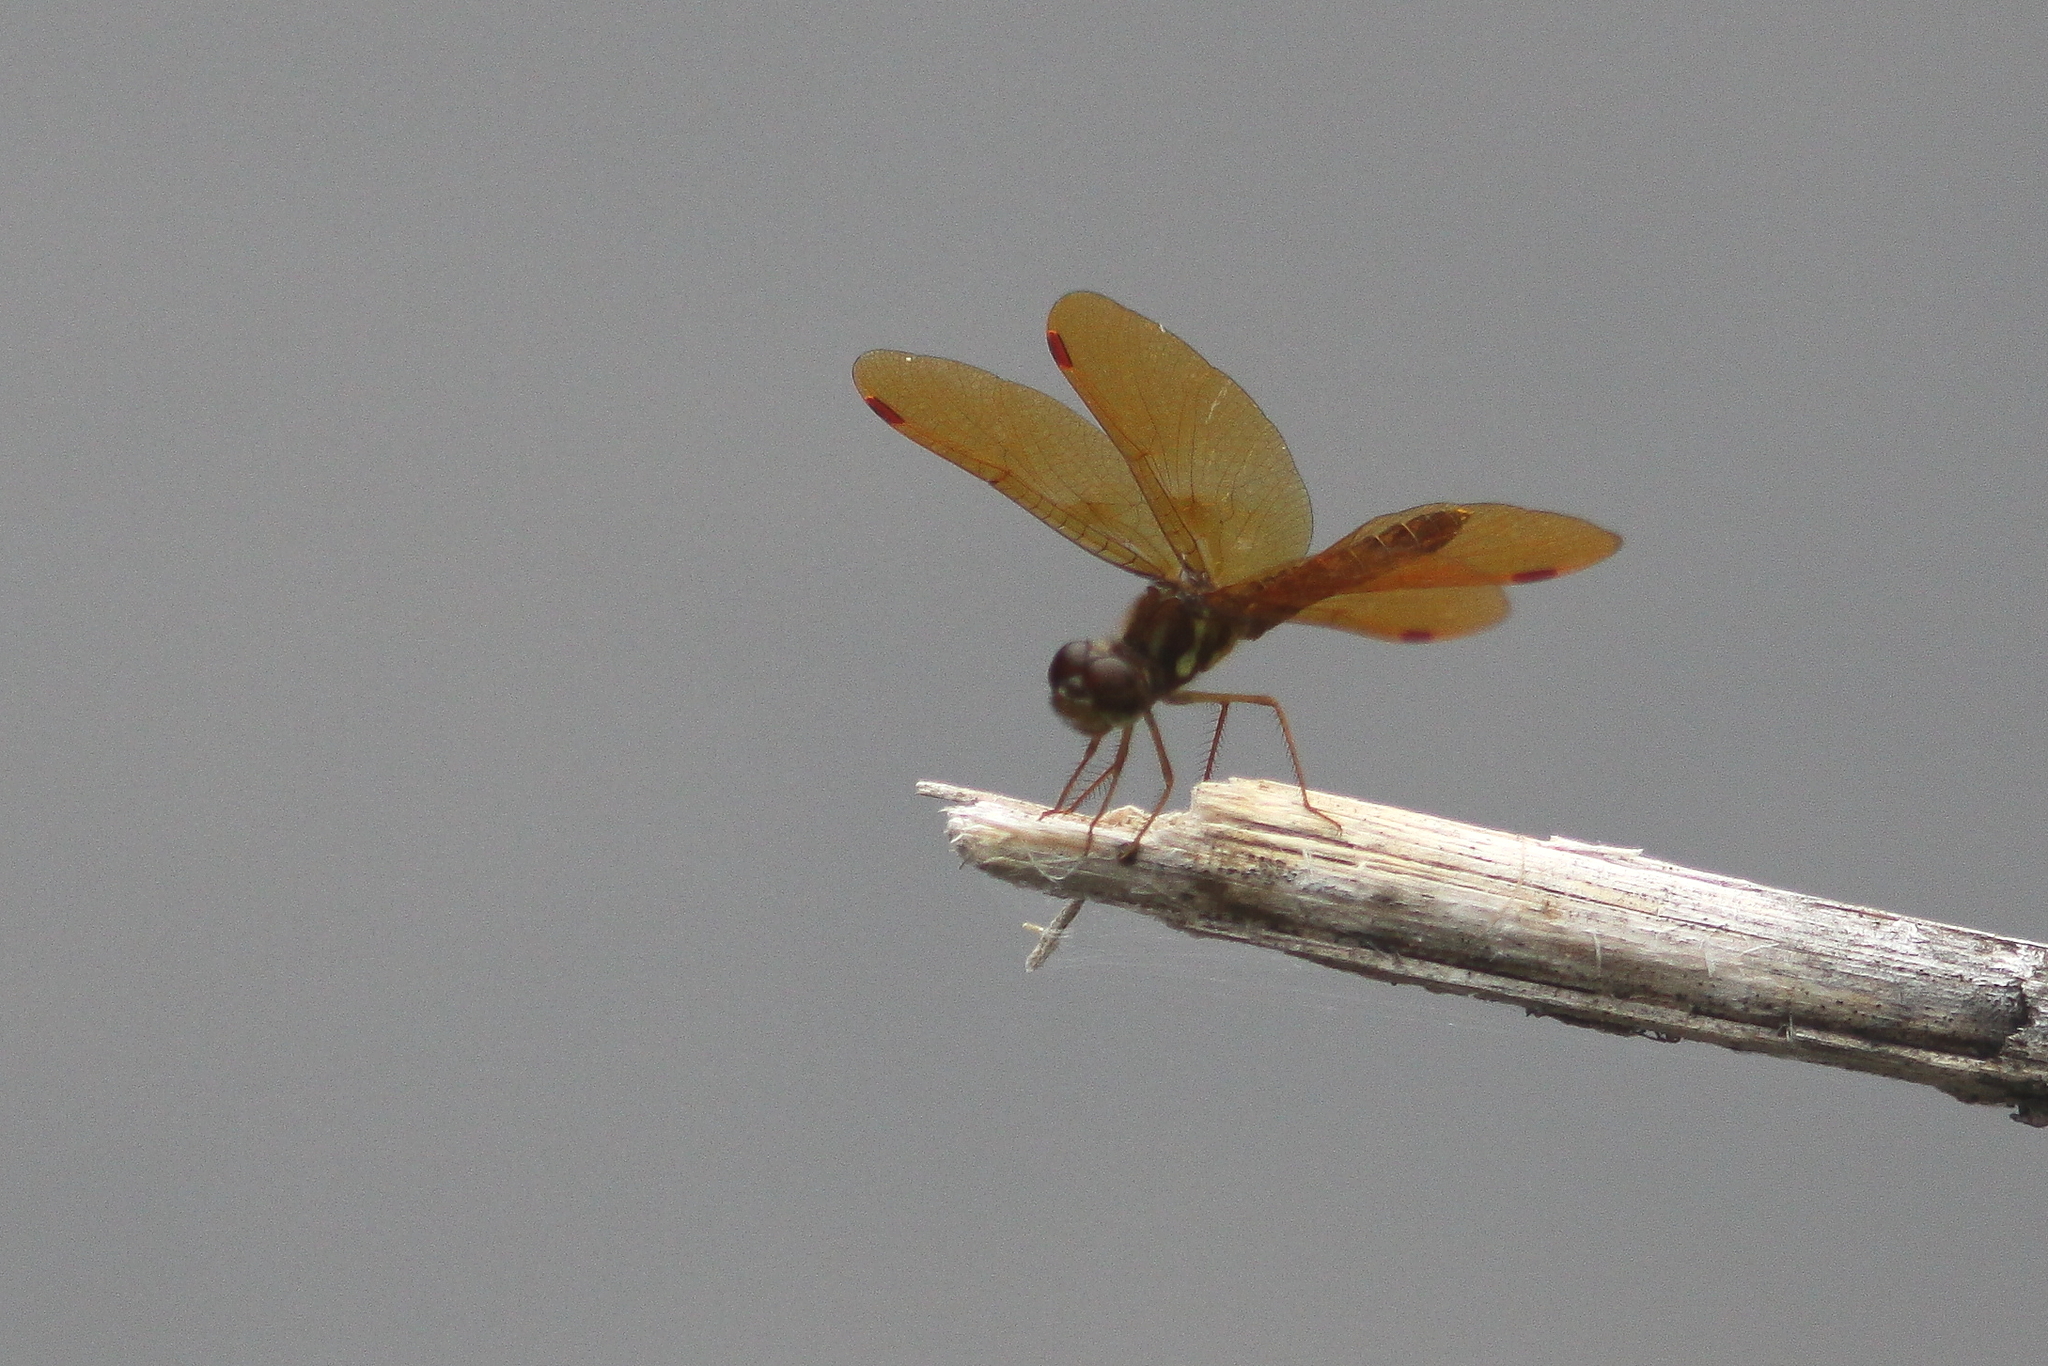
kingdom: Animalia
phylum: Arthropoda
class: Insecta
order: Odonata
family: Libellulidae
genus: Perithemis
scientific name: Perithemis tenera
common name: Eastern amberwing
